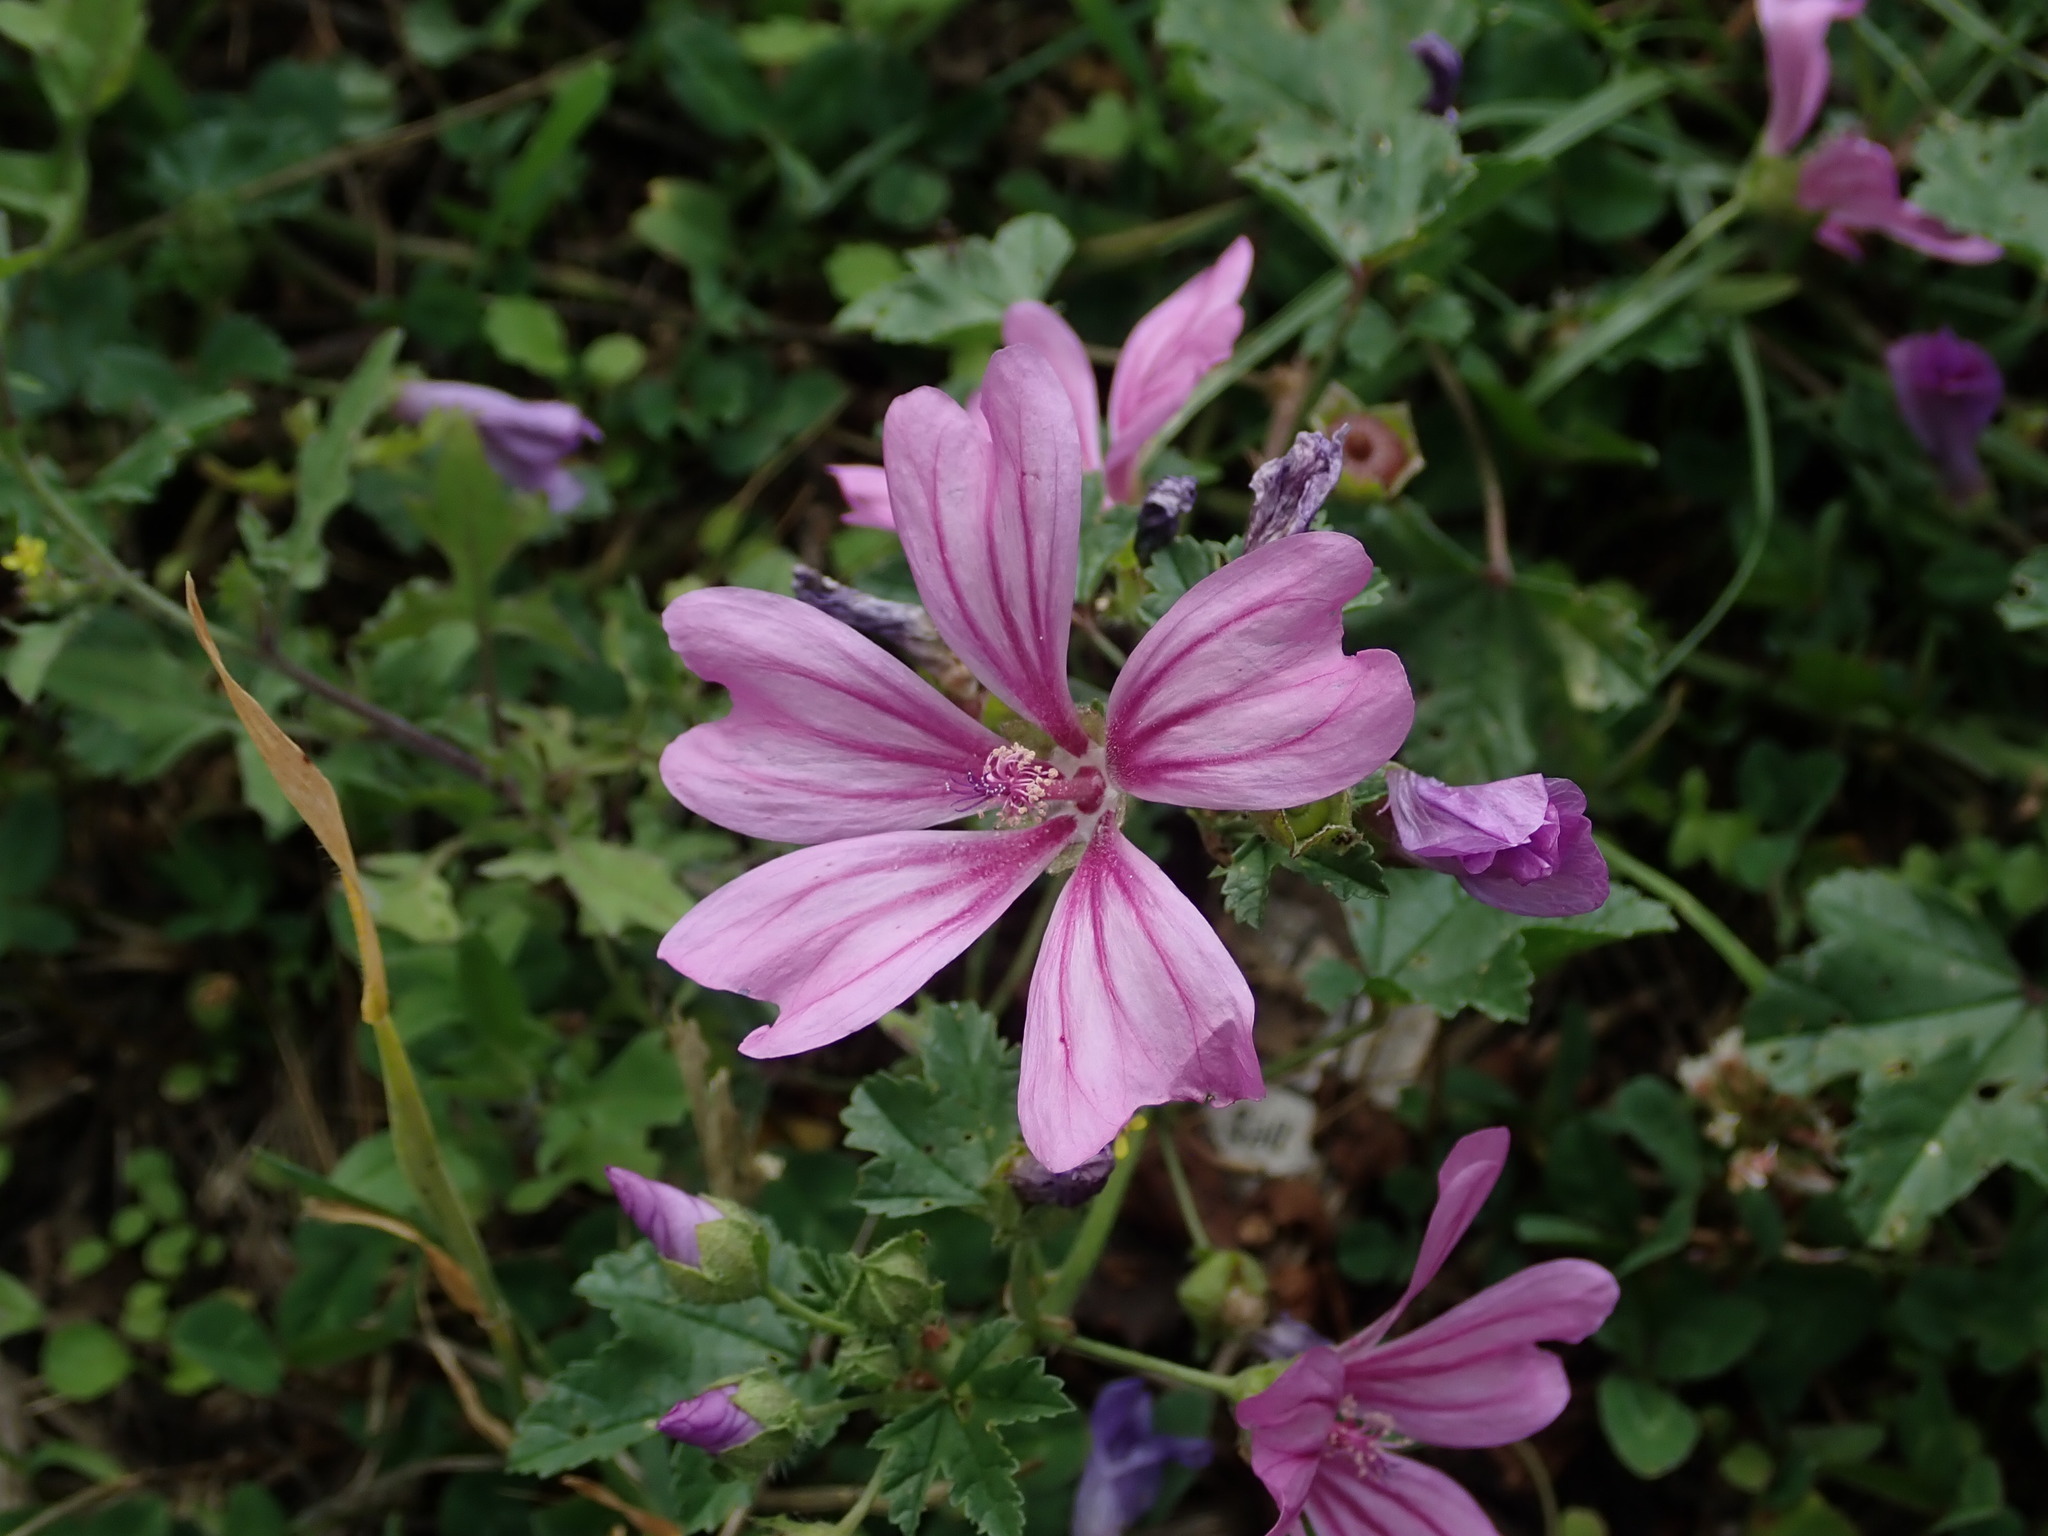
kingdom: Plantae
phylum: Tracheophyta
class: Magnoliopsida
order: Malvales
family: Malvaceae
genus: Malva
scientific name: Malva sylvestris
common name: Common mallow
